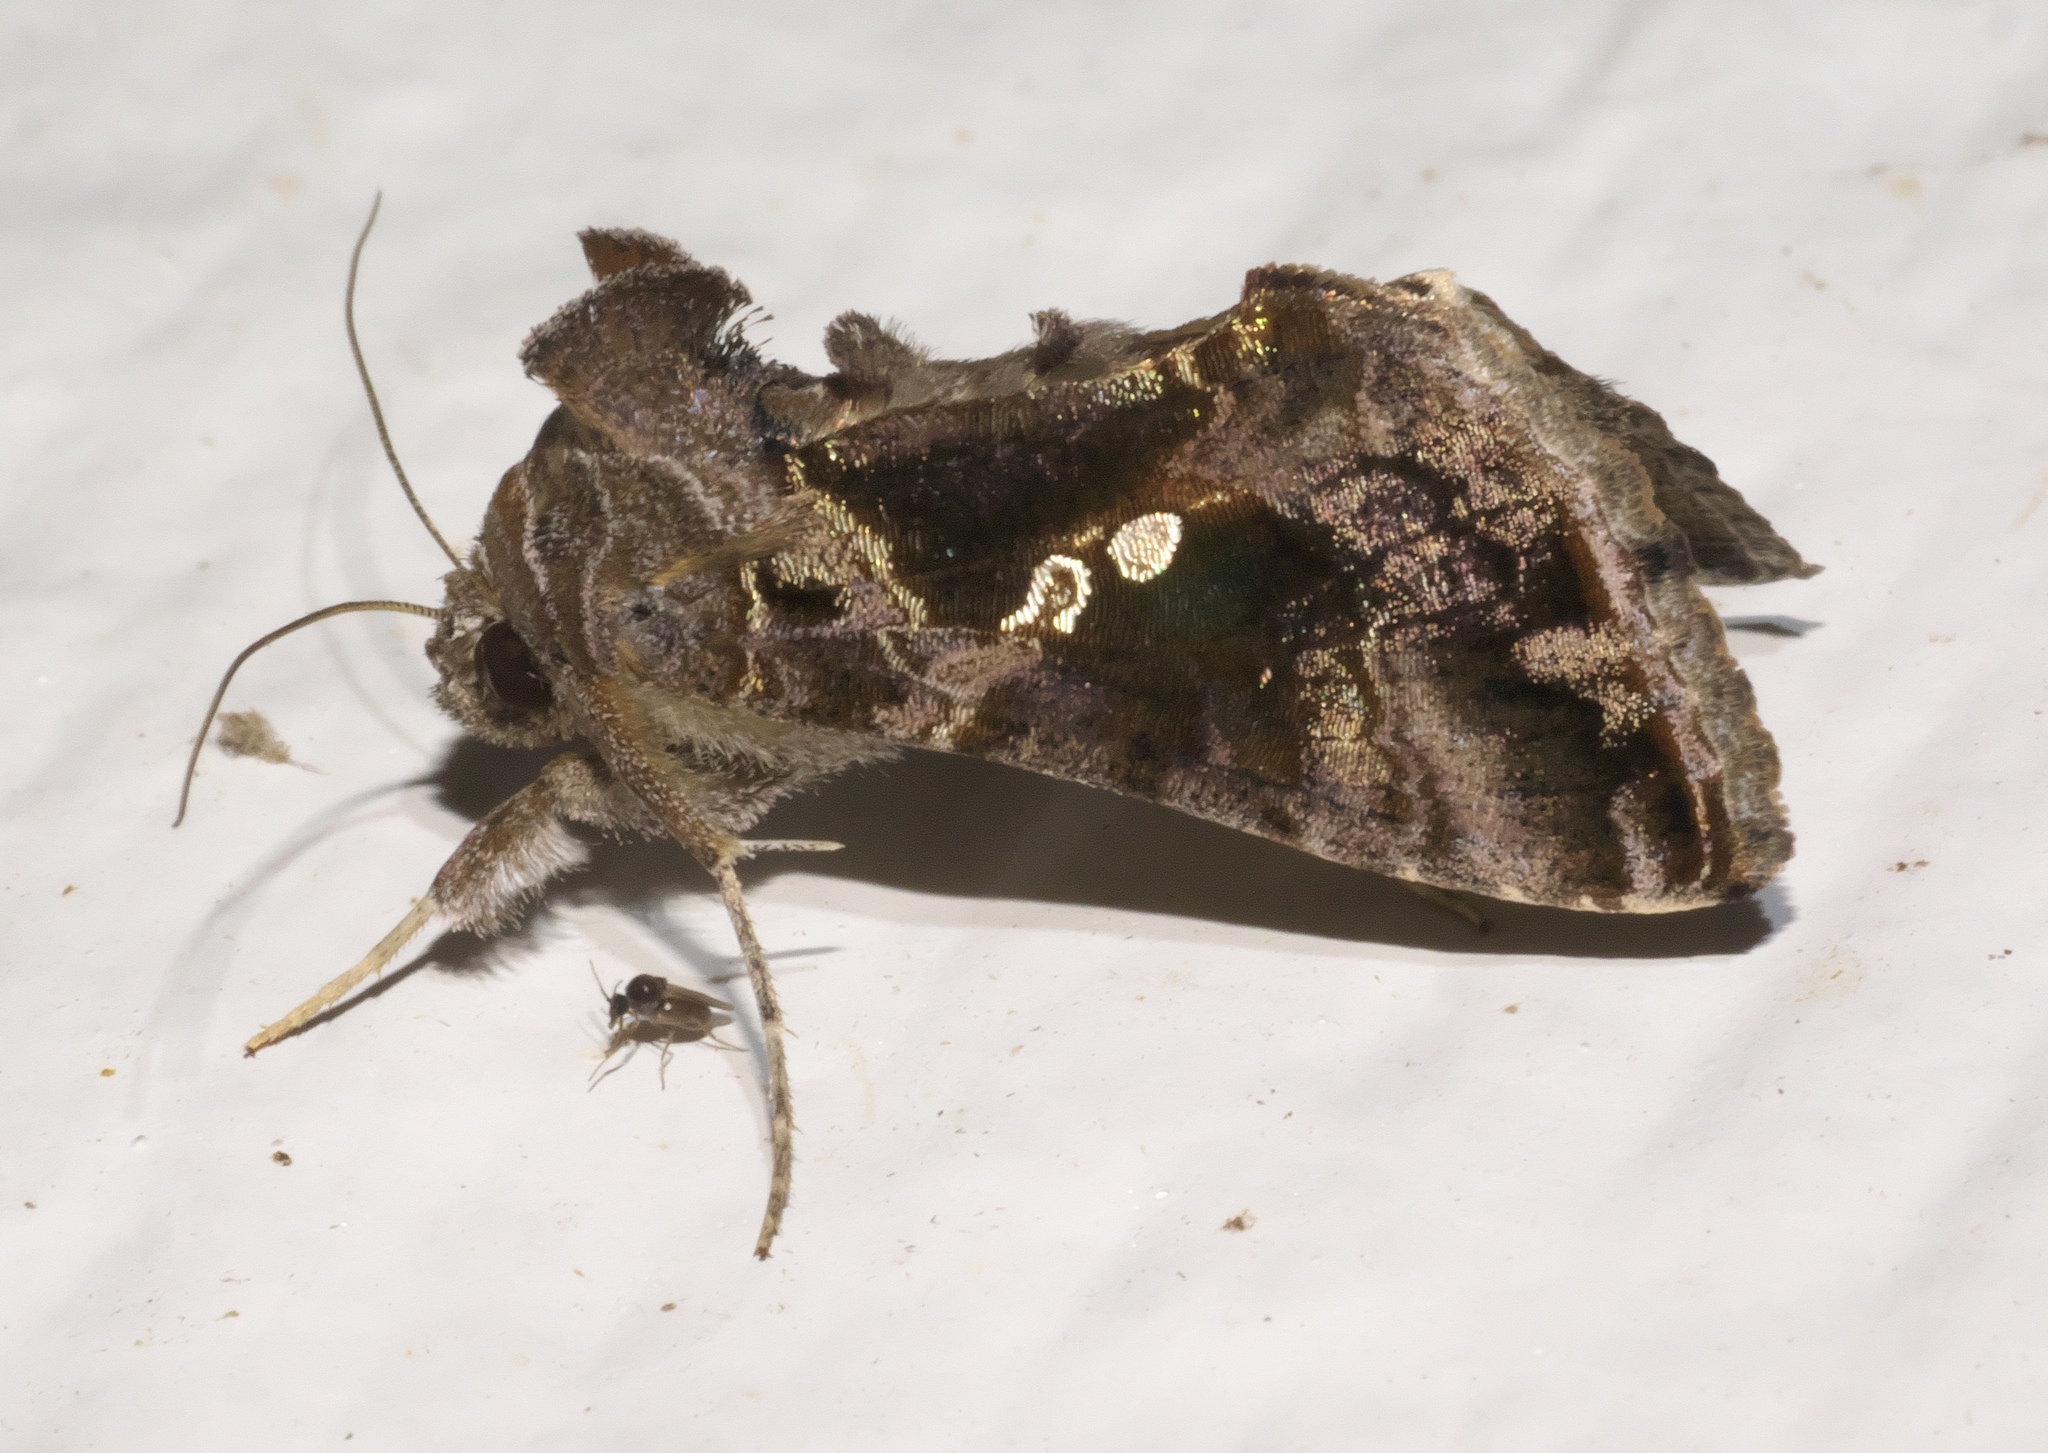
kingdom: Animalia
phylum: Arthropoda
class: Insecta
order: Lepidoptera
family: Noctuidae
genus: Chrysodeixis
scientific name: Chrysodeixis includens
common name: Cutworm moth
